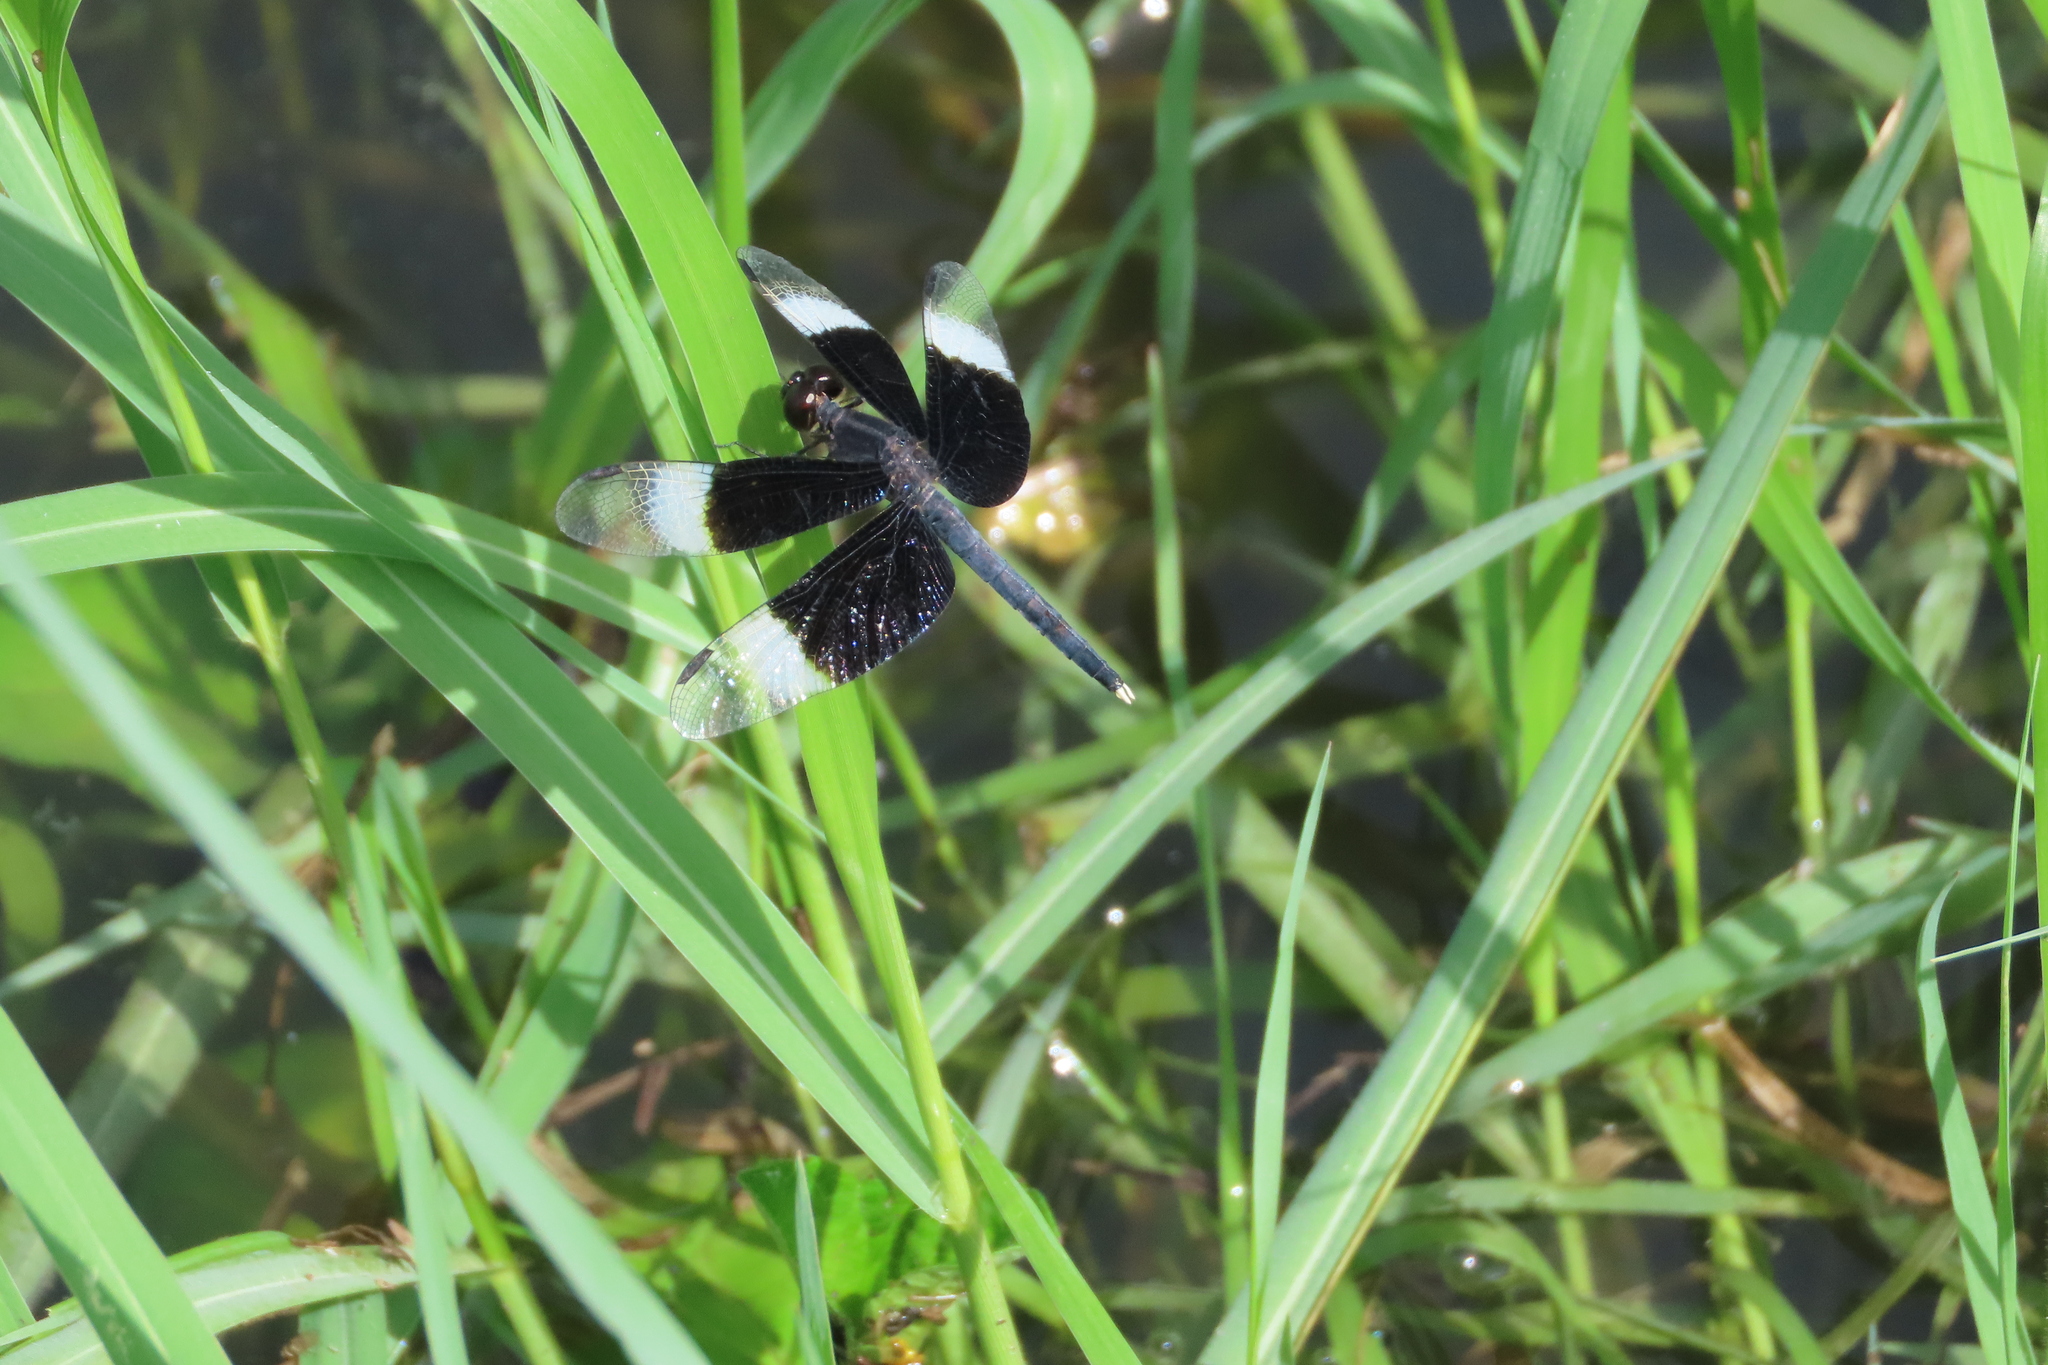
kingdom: Animalia
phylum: Arthropoda
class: Insecta
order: Odonata
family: Libellulidae
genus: Neurothemis
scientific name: Neurothemis tullia
